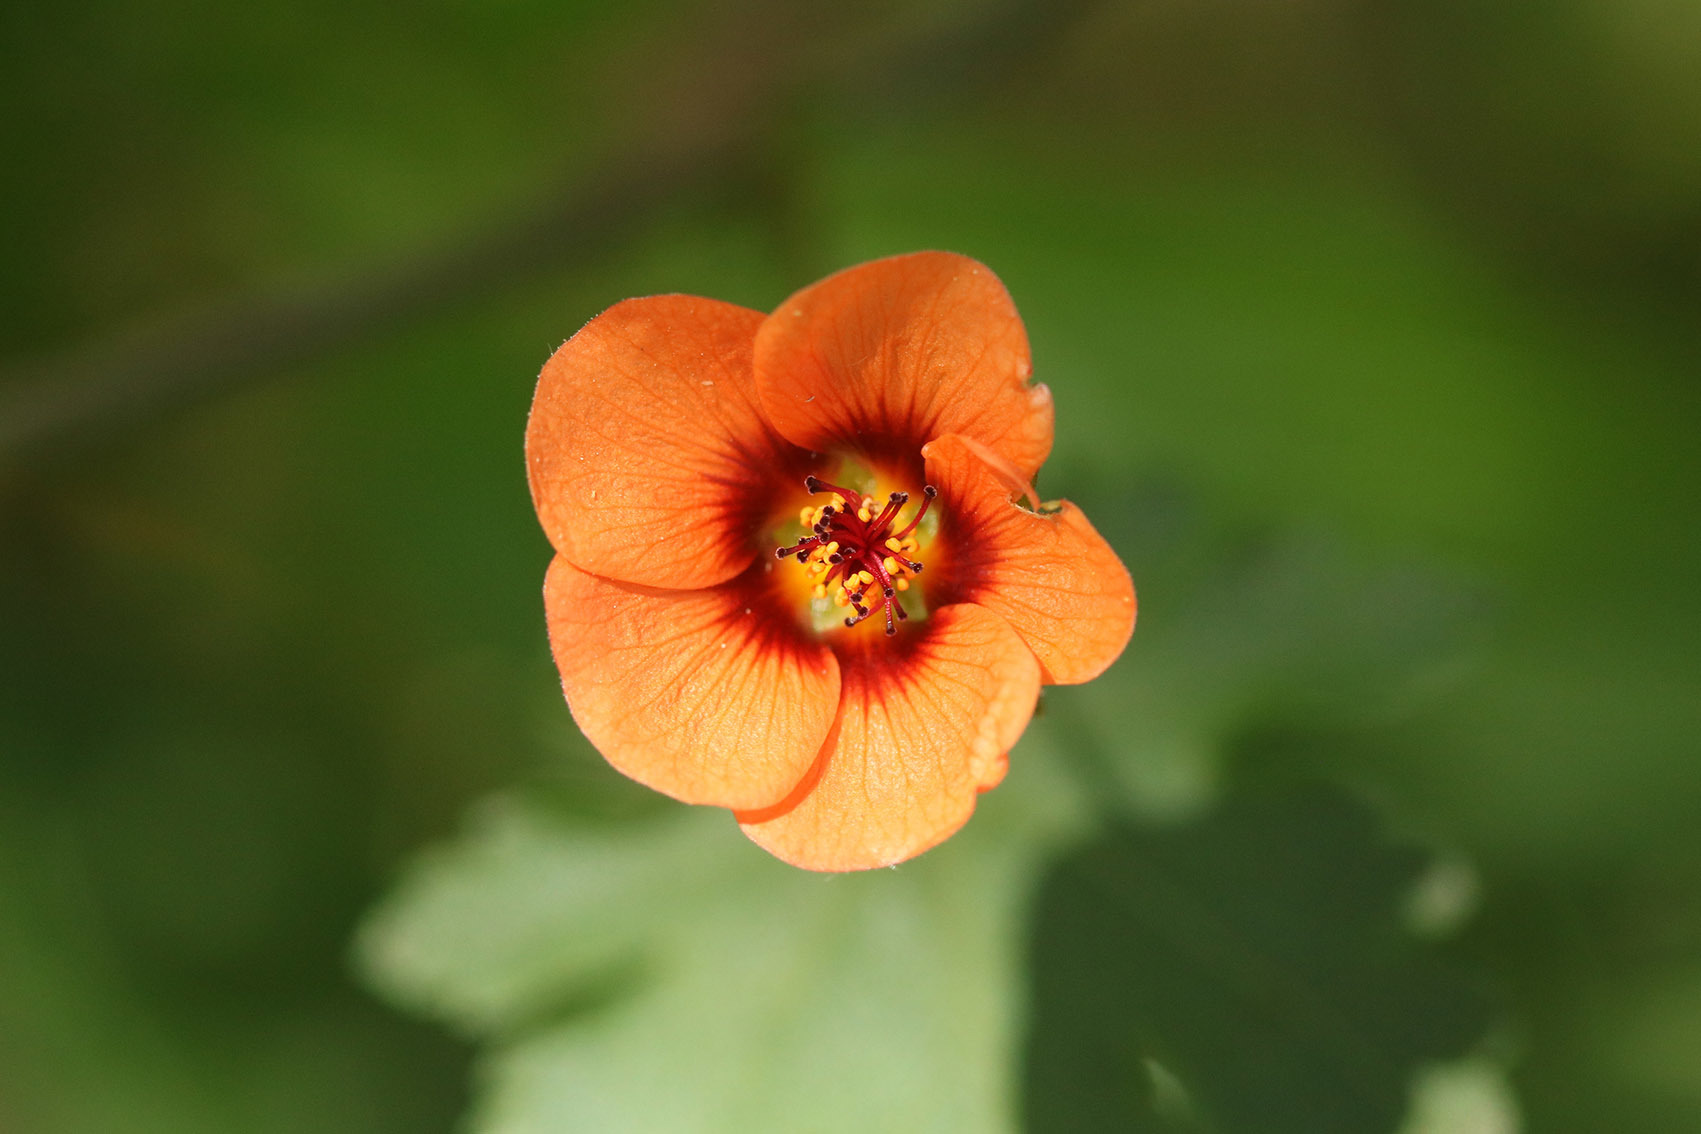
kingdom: Plantae
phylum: Tracheophyta
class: Magnoliopsida
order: Malvales
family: Malvaceae
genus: Modiola
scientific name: Modiola caroliniana
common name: Carolina bristlemallow
